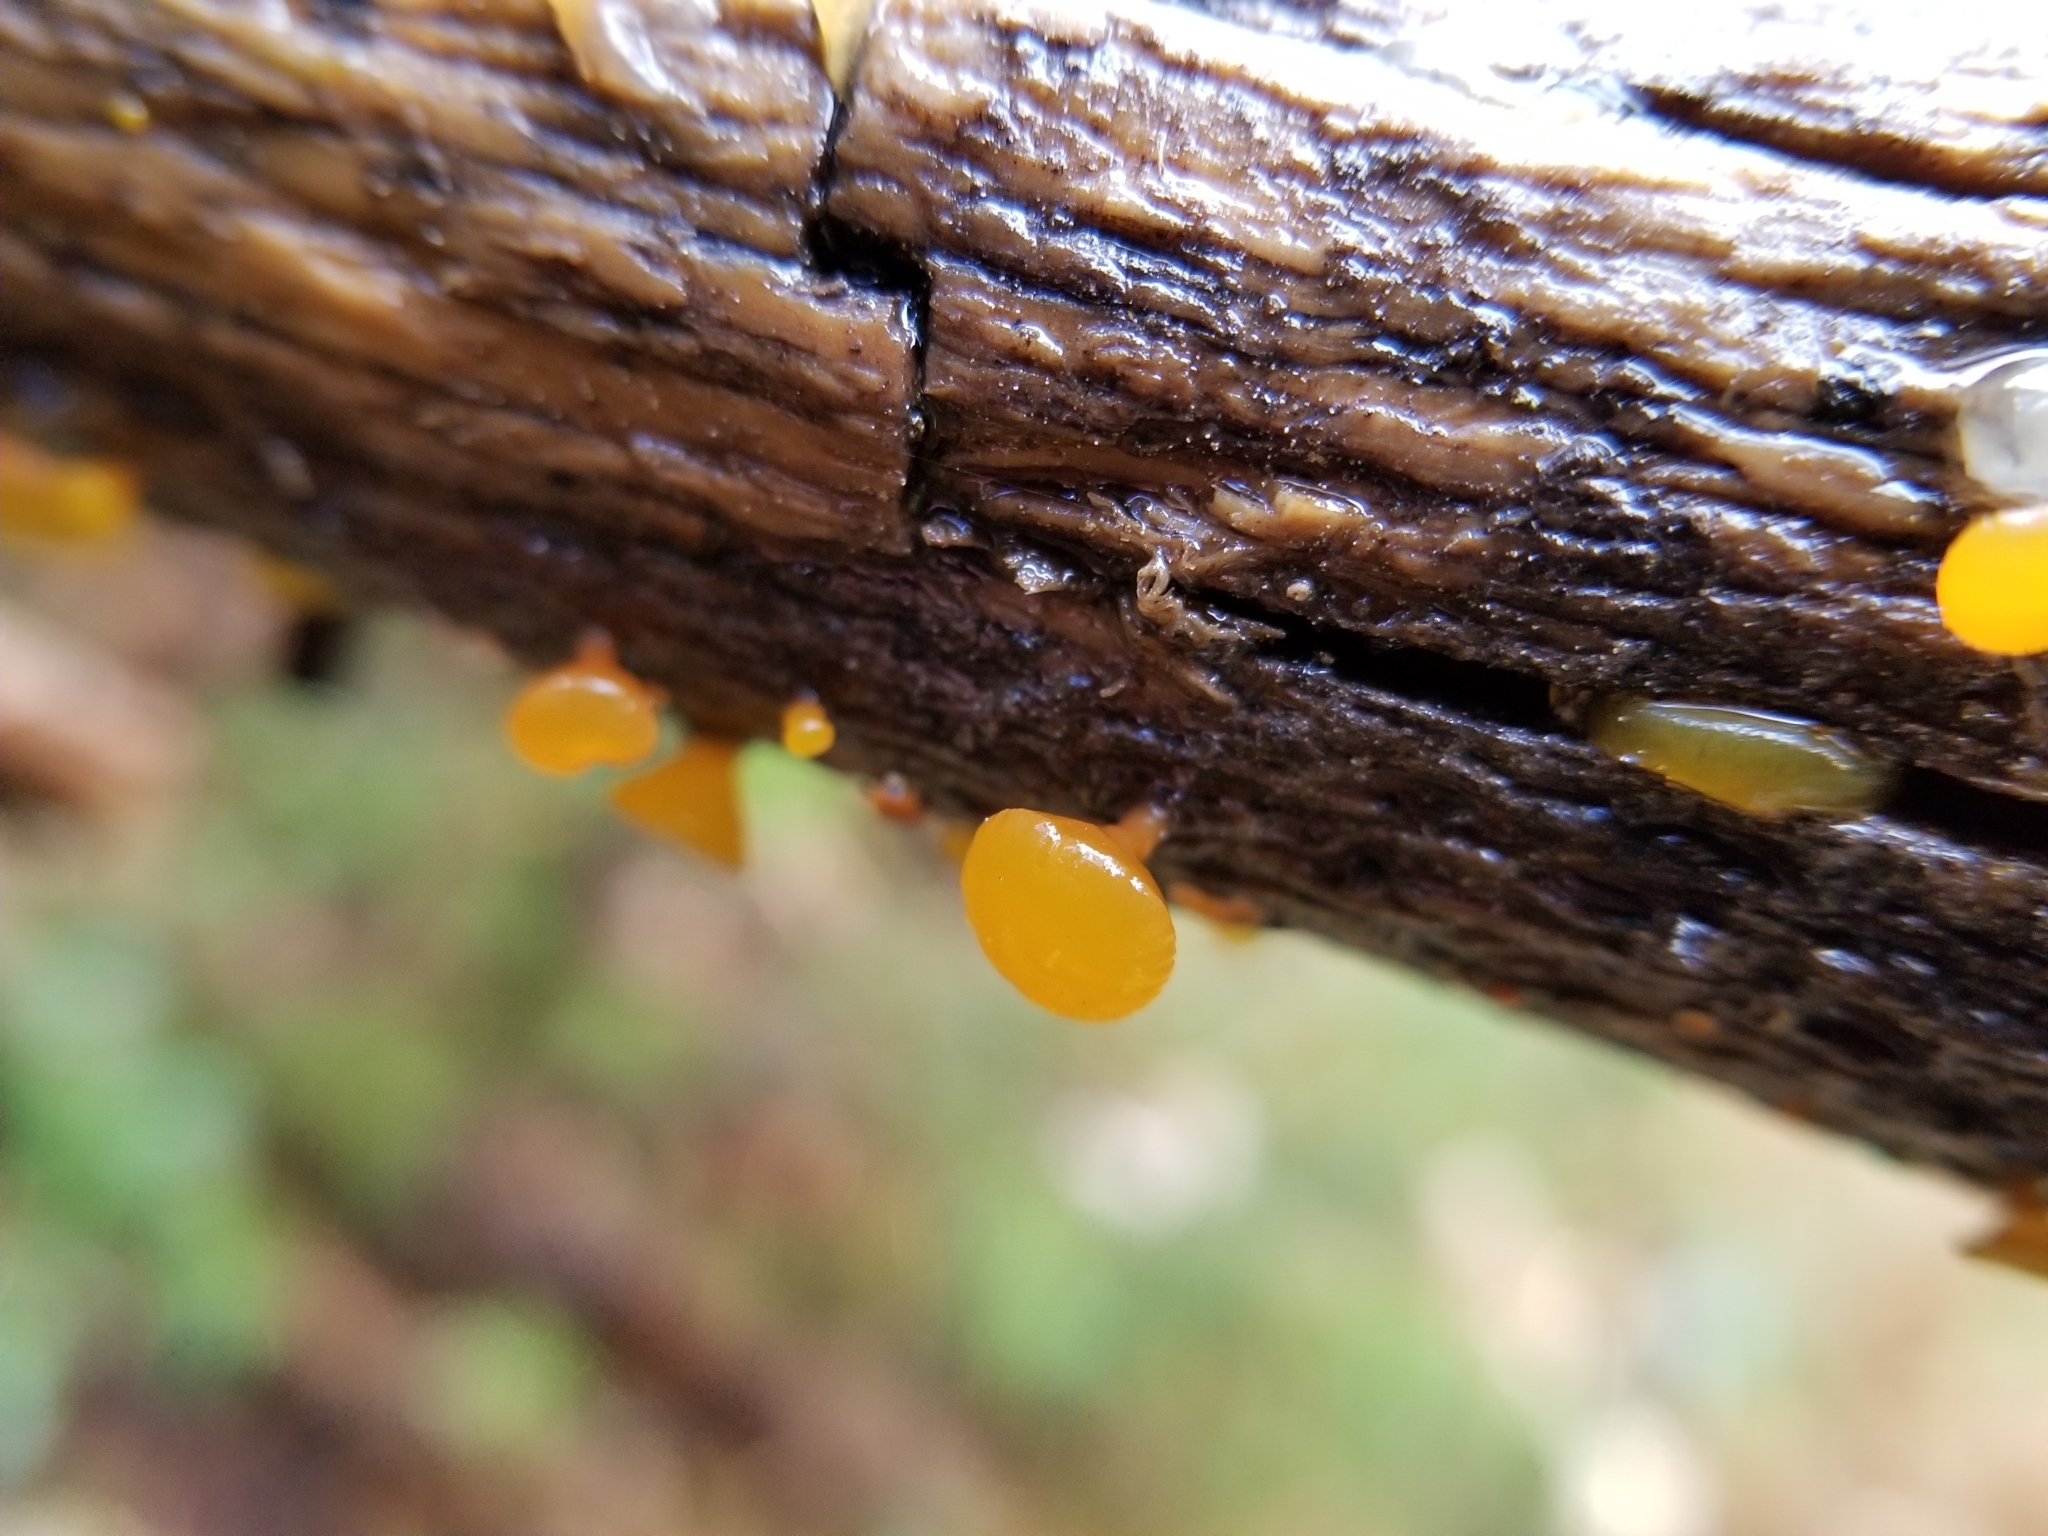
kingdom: Fungi
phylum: Basidiomycota
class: Dacrymycetes
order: Dacrymycetales
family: Dacrymycetaceae
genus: Guepiniopsis
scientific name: Guepiniopsis alpina
